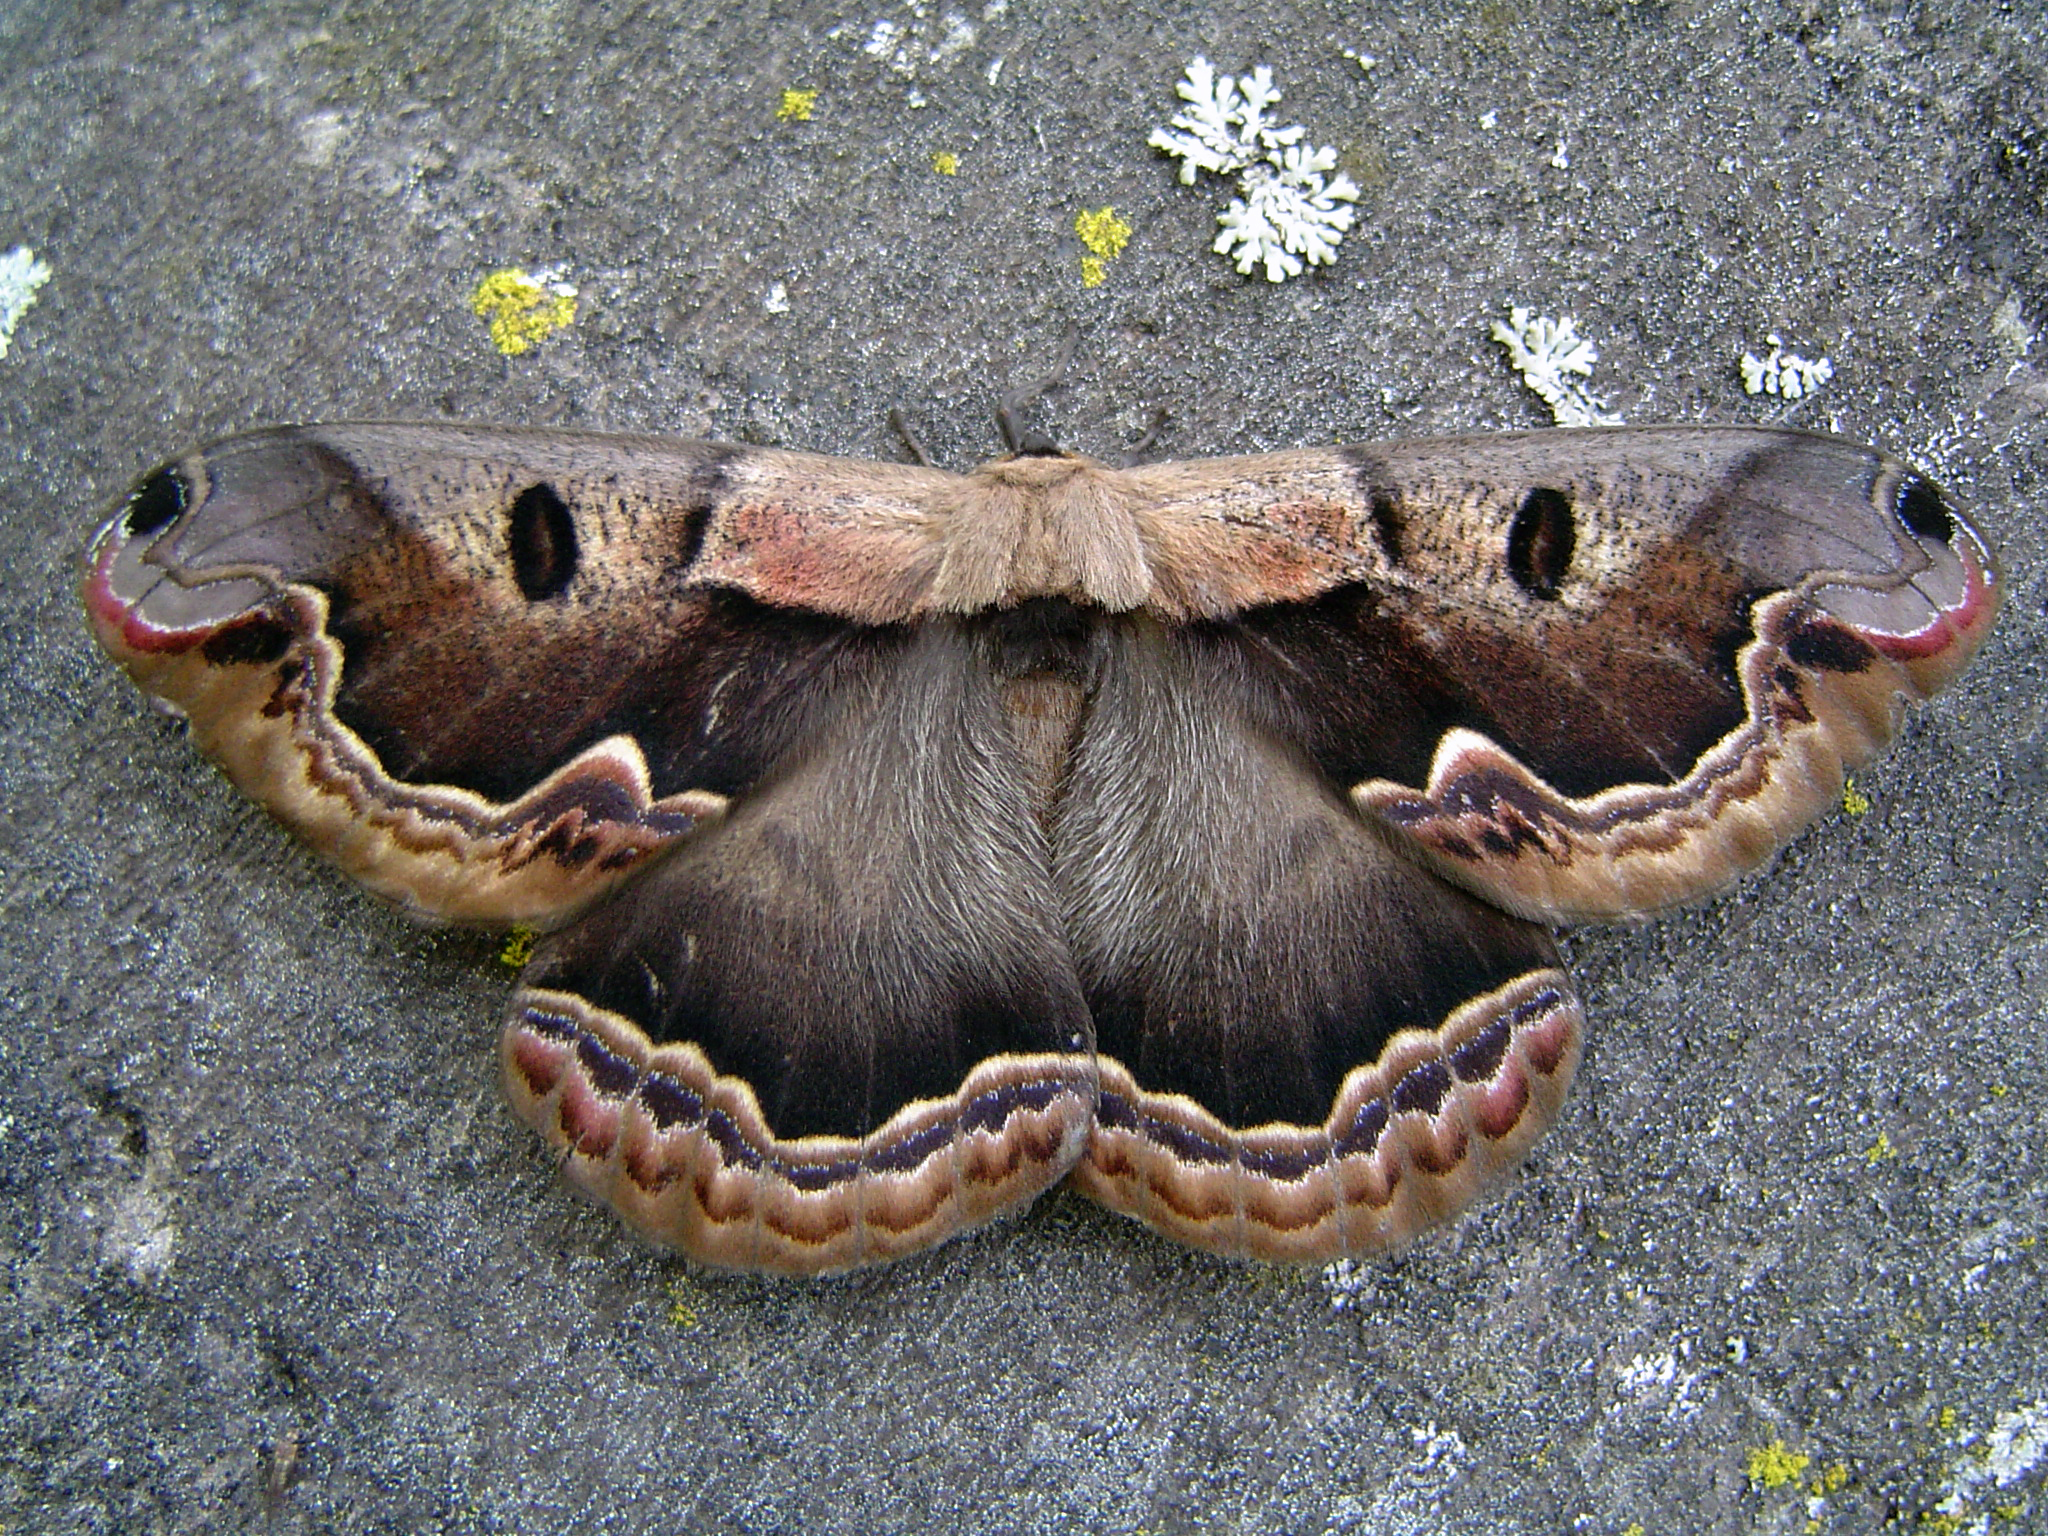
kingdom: Animalia
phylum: Arthropoda
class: Insecta
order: Lepidoptera
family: Saturniidae
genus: Arsenura
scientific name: Arsenura orbignyana
